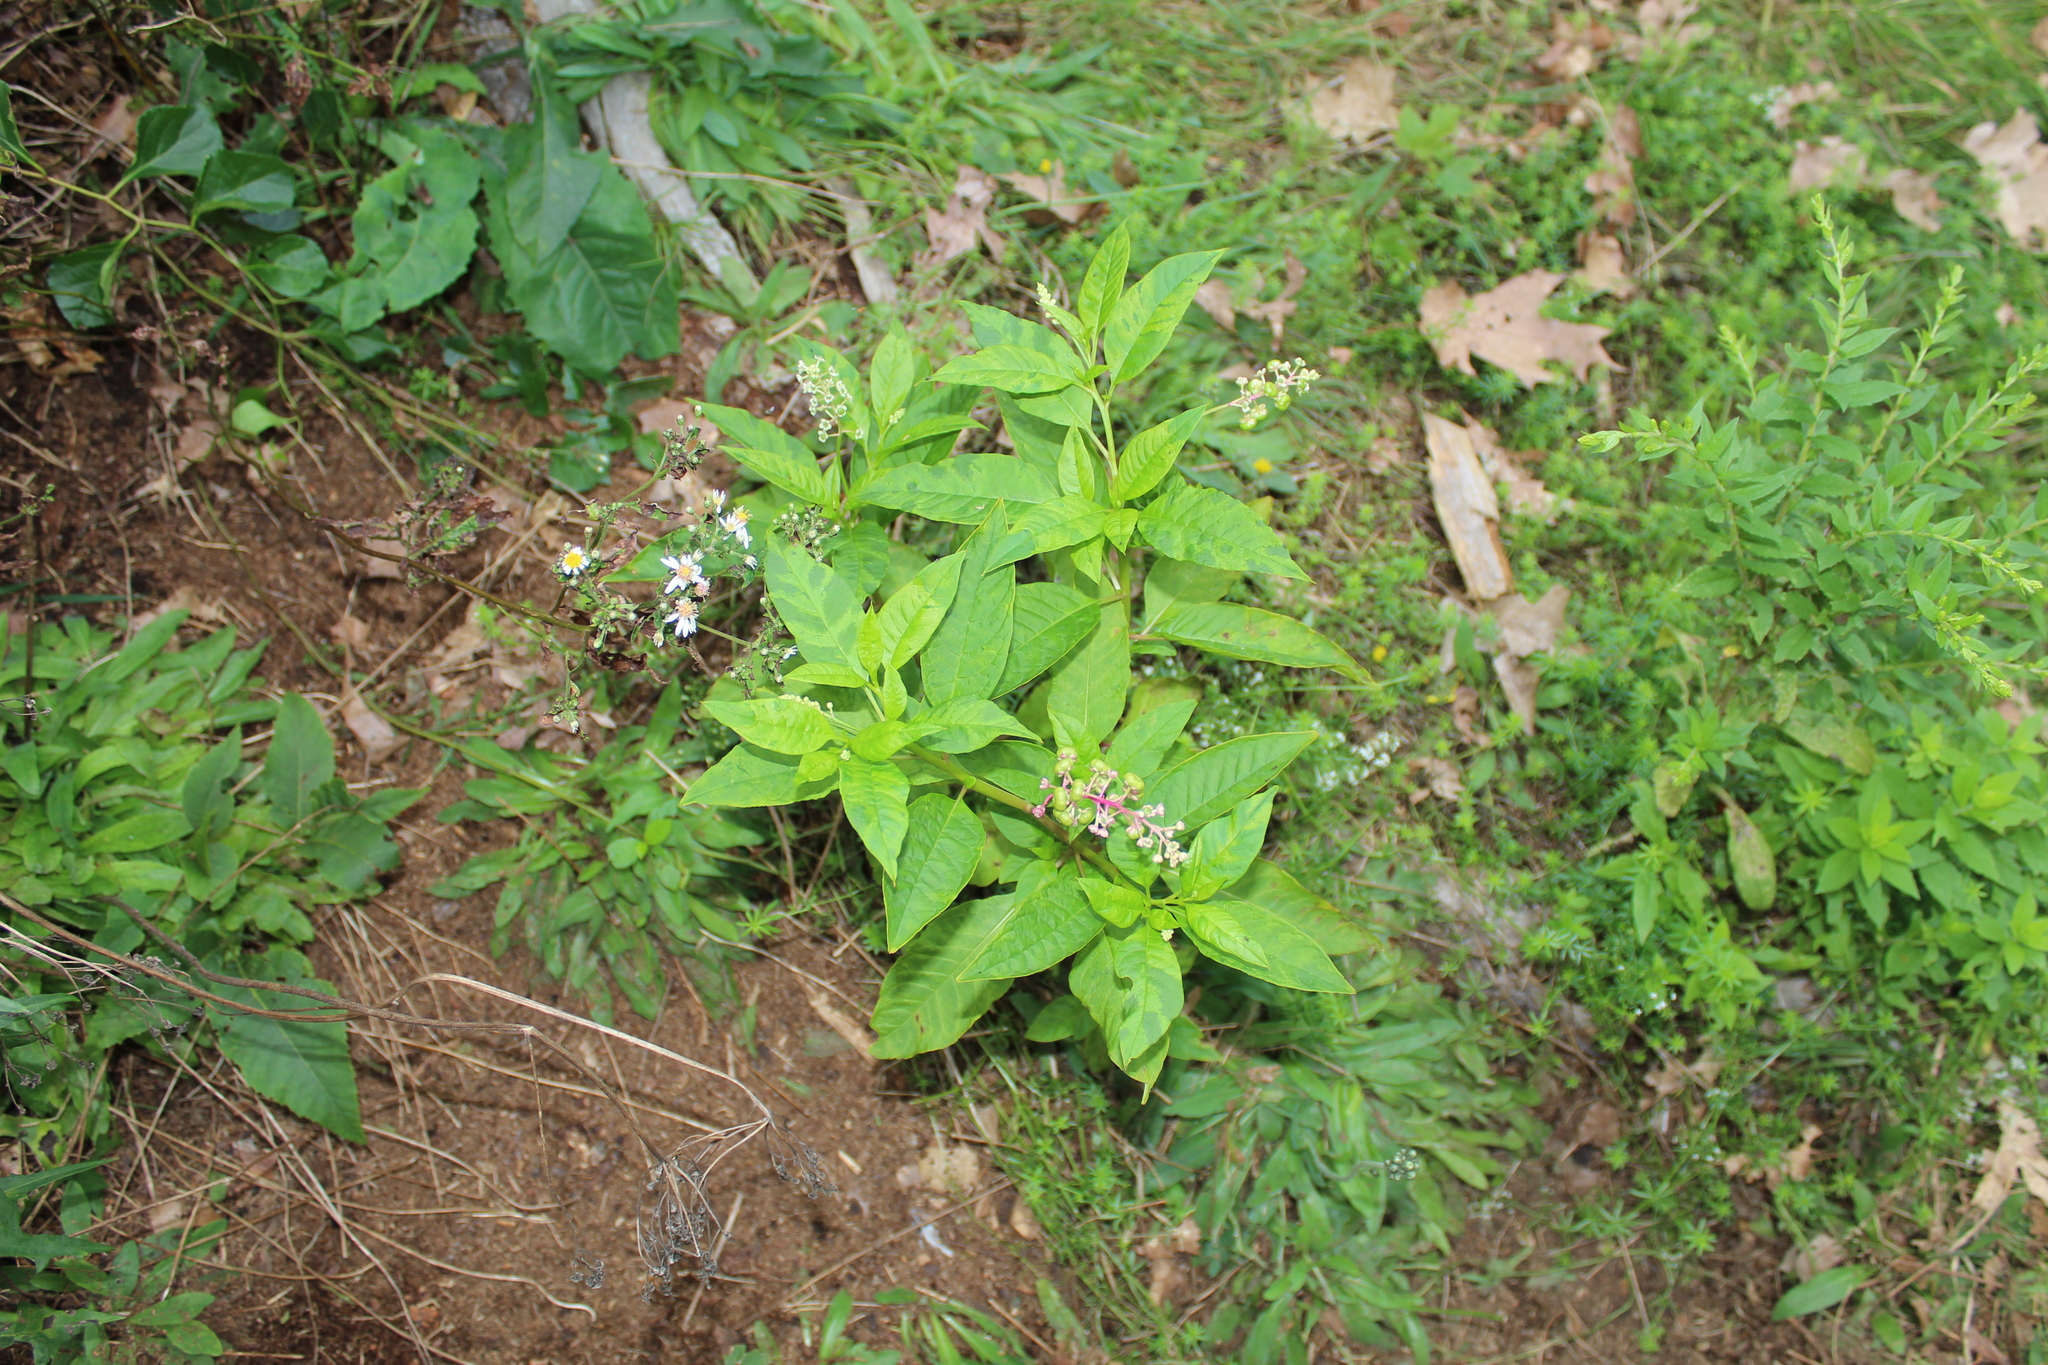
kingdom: Plantae
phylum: Tracheophyta
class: Magnoliopsida
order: Caryophyllales
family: Phytolaccaceae
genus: Phytolacca
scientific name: Phytolacca americana
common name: American pokeweed
